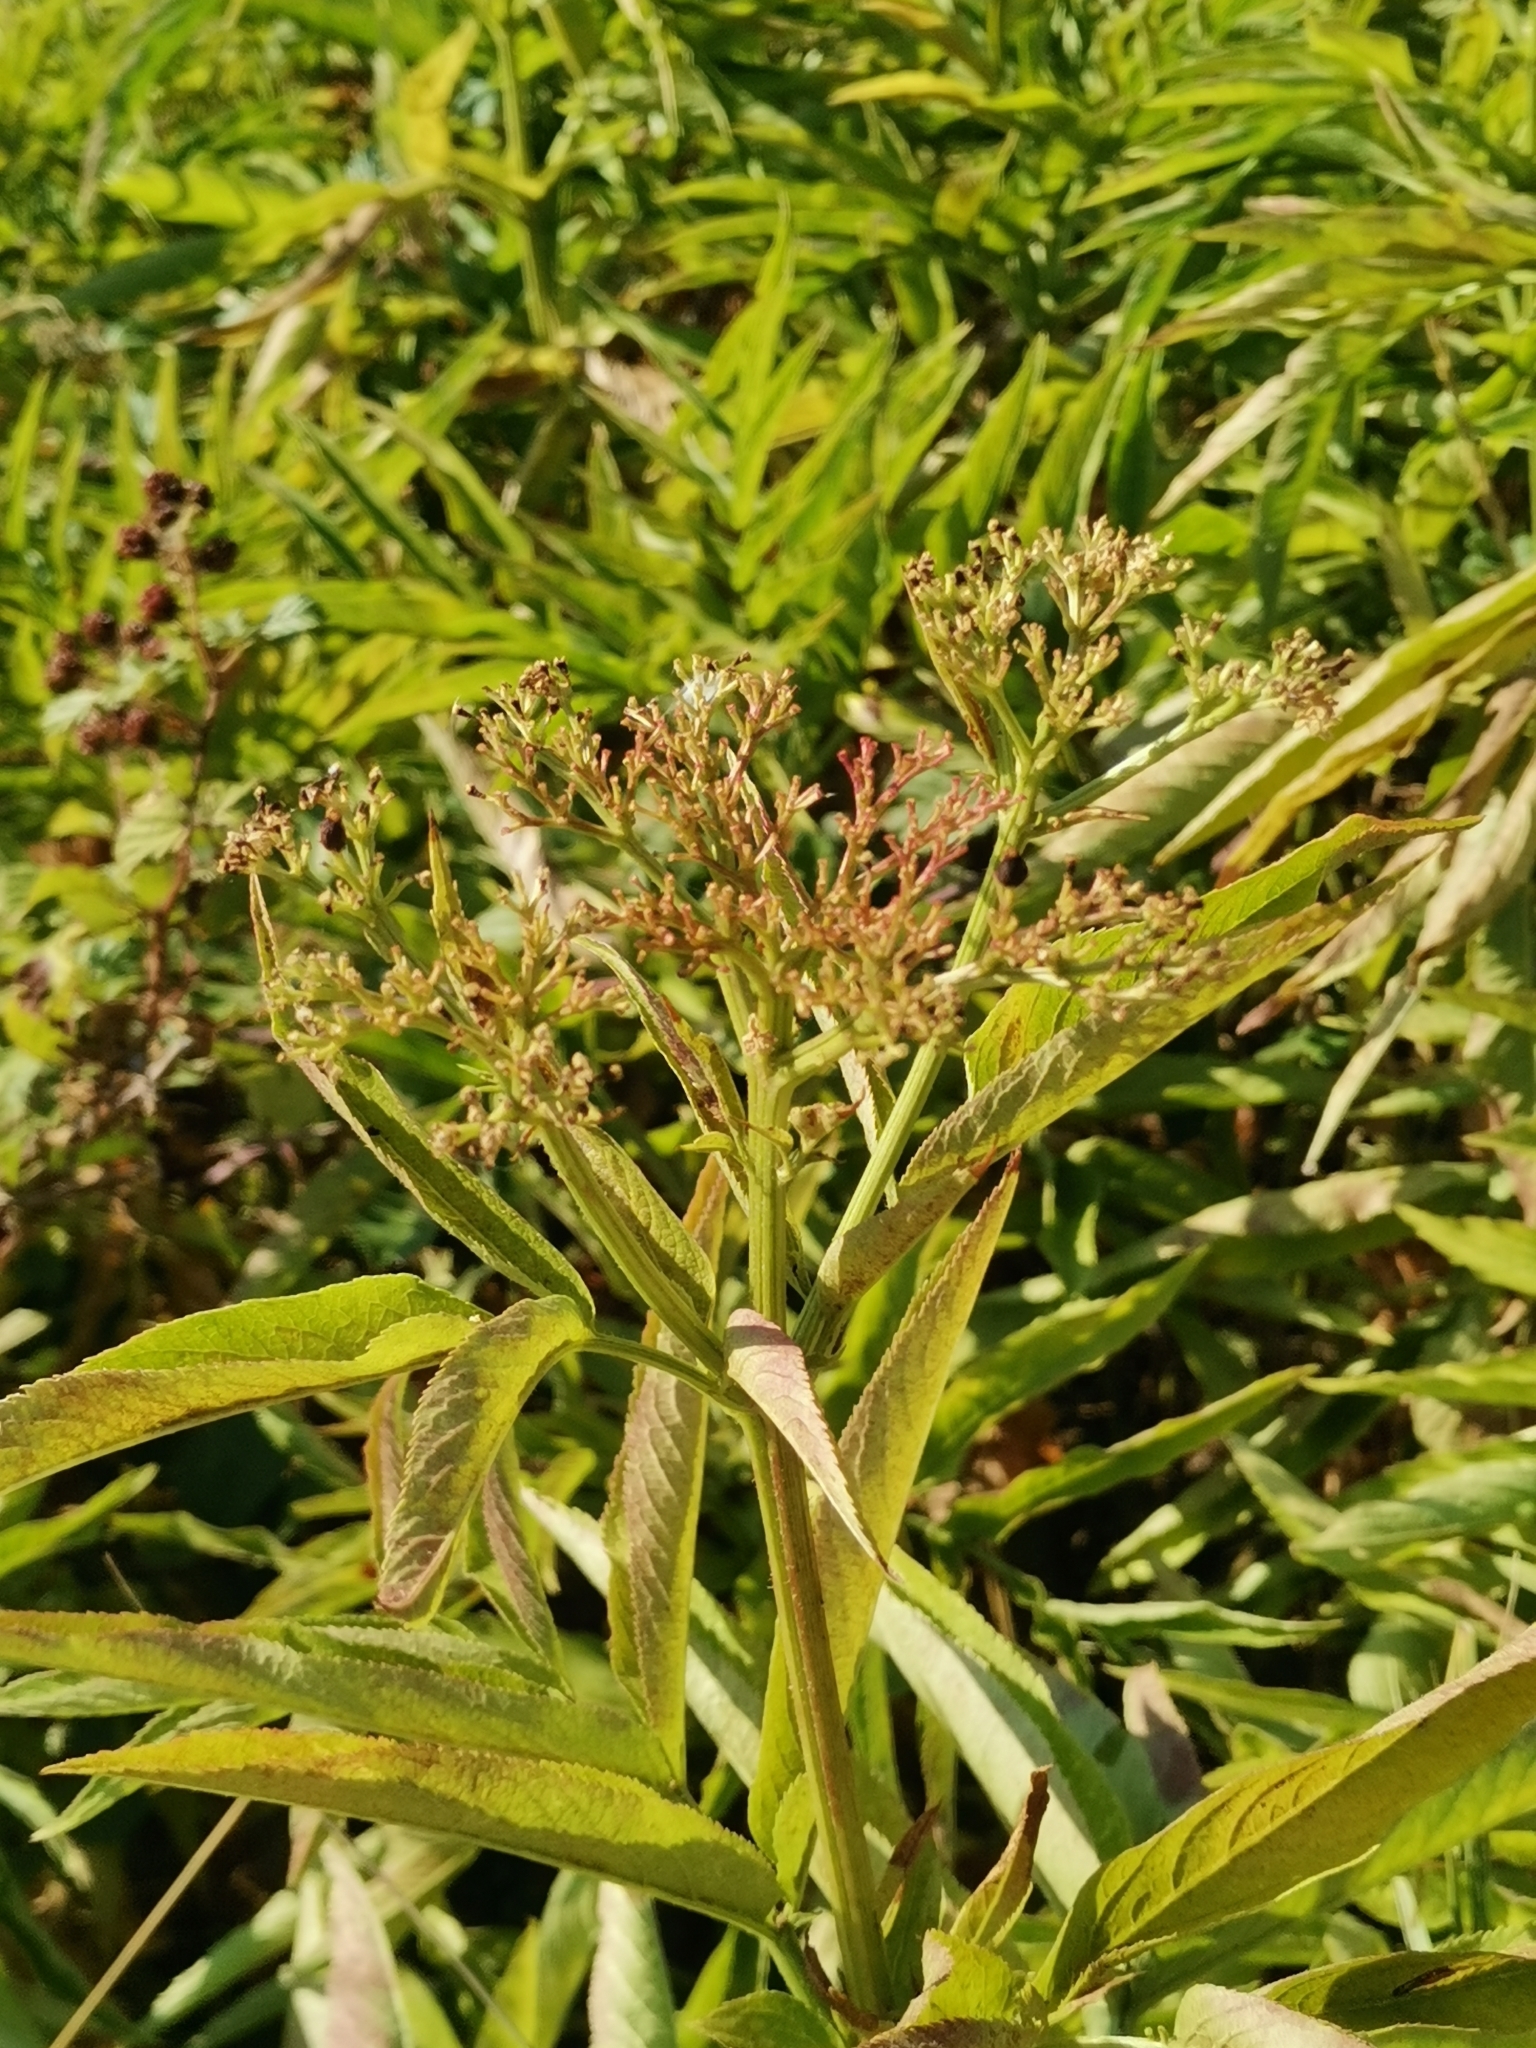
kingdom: Plantae
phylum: Tracheophyta
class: Magnoliopsida
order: Dipsacales
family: Viburnaceae
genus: Sambucus
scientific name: Sambucus ebulus
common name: Dwarf elder
